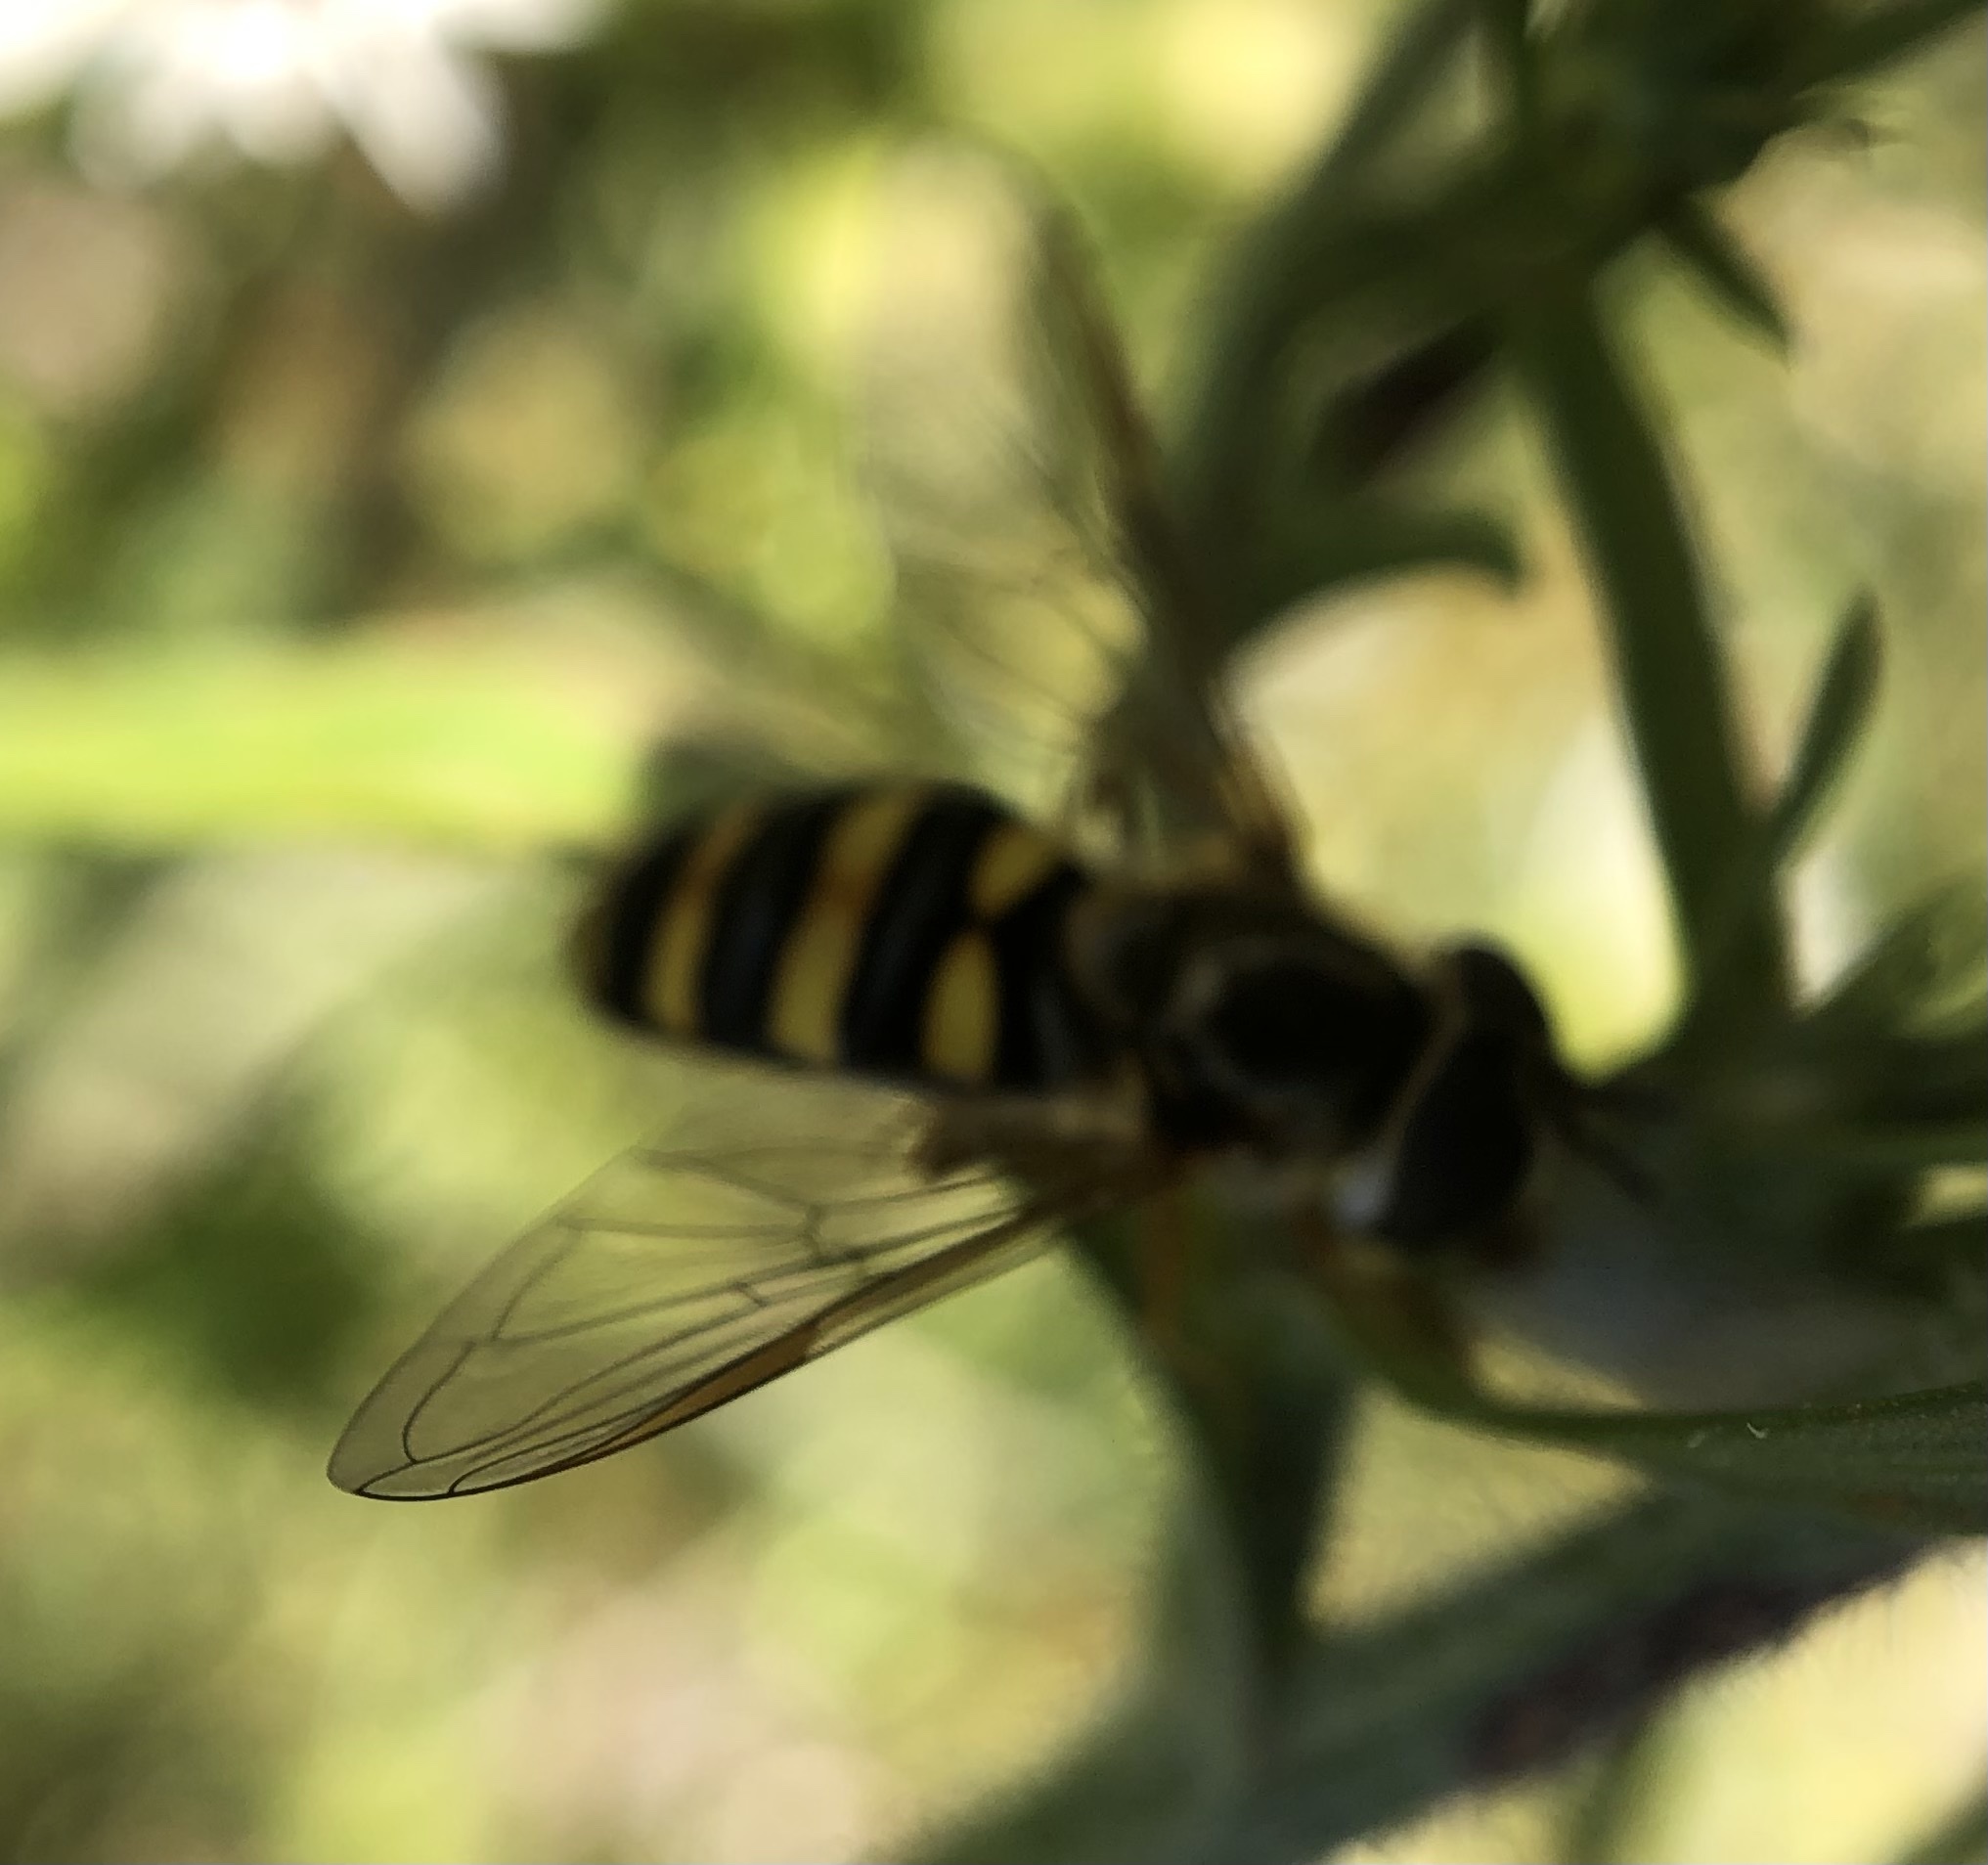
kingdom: Animalia
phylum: Arthropoda
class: Insecta
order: Diptera
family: Syrphidae
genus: Eupeodes
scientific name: Eupeodes
